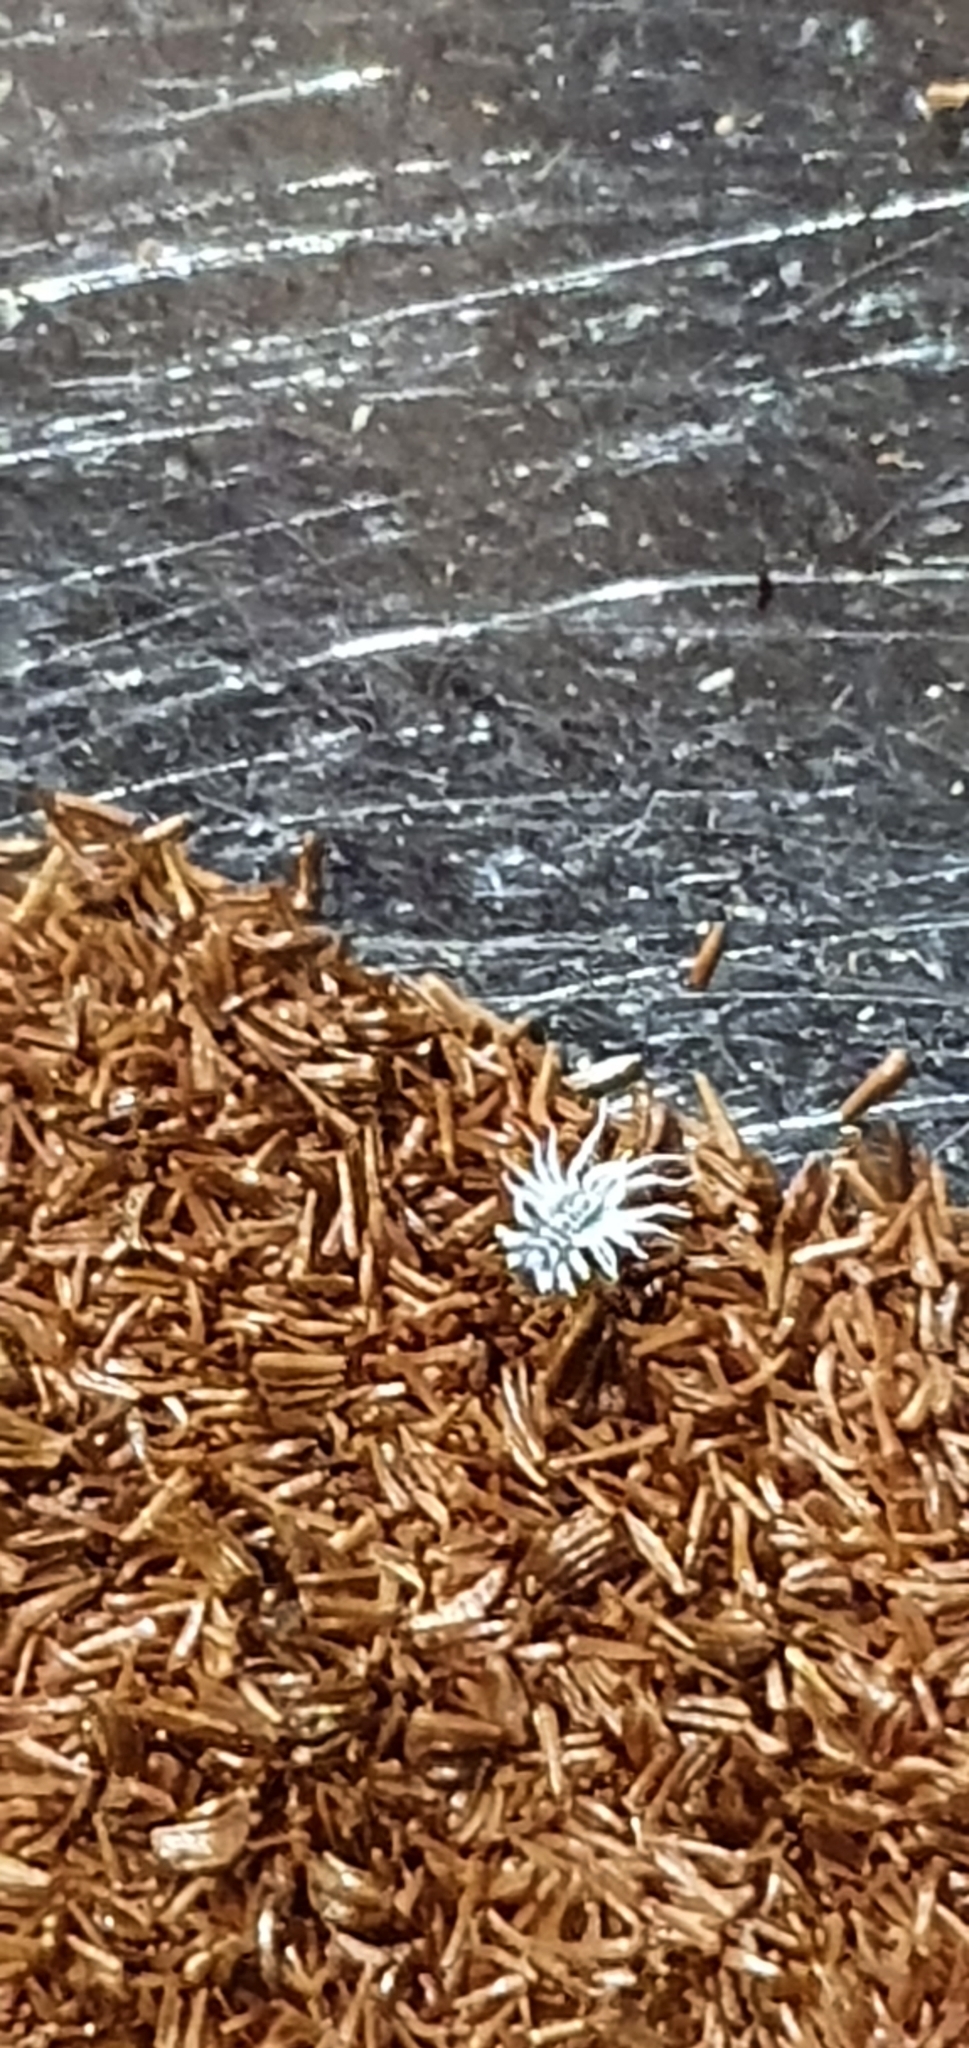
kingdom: Animalia
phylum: Arthropoda
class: Insecta
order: Coleoptera
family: Coccinellidae
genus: Cryptolaemus
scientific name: Cryptolaemus montrouzieri
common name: Mealybug destroyer
